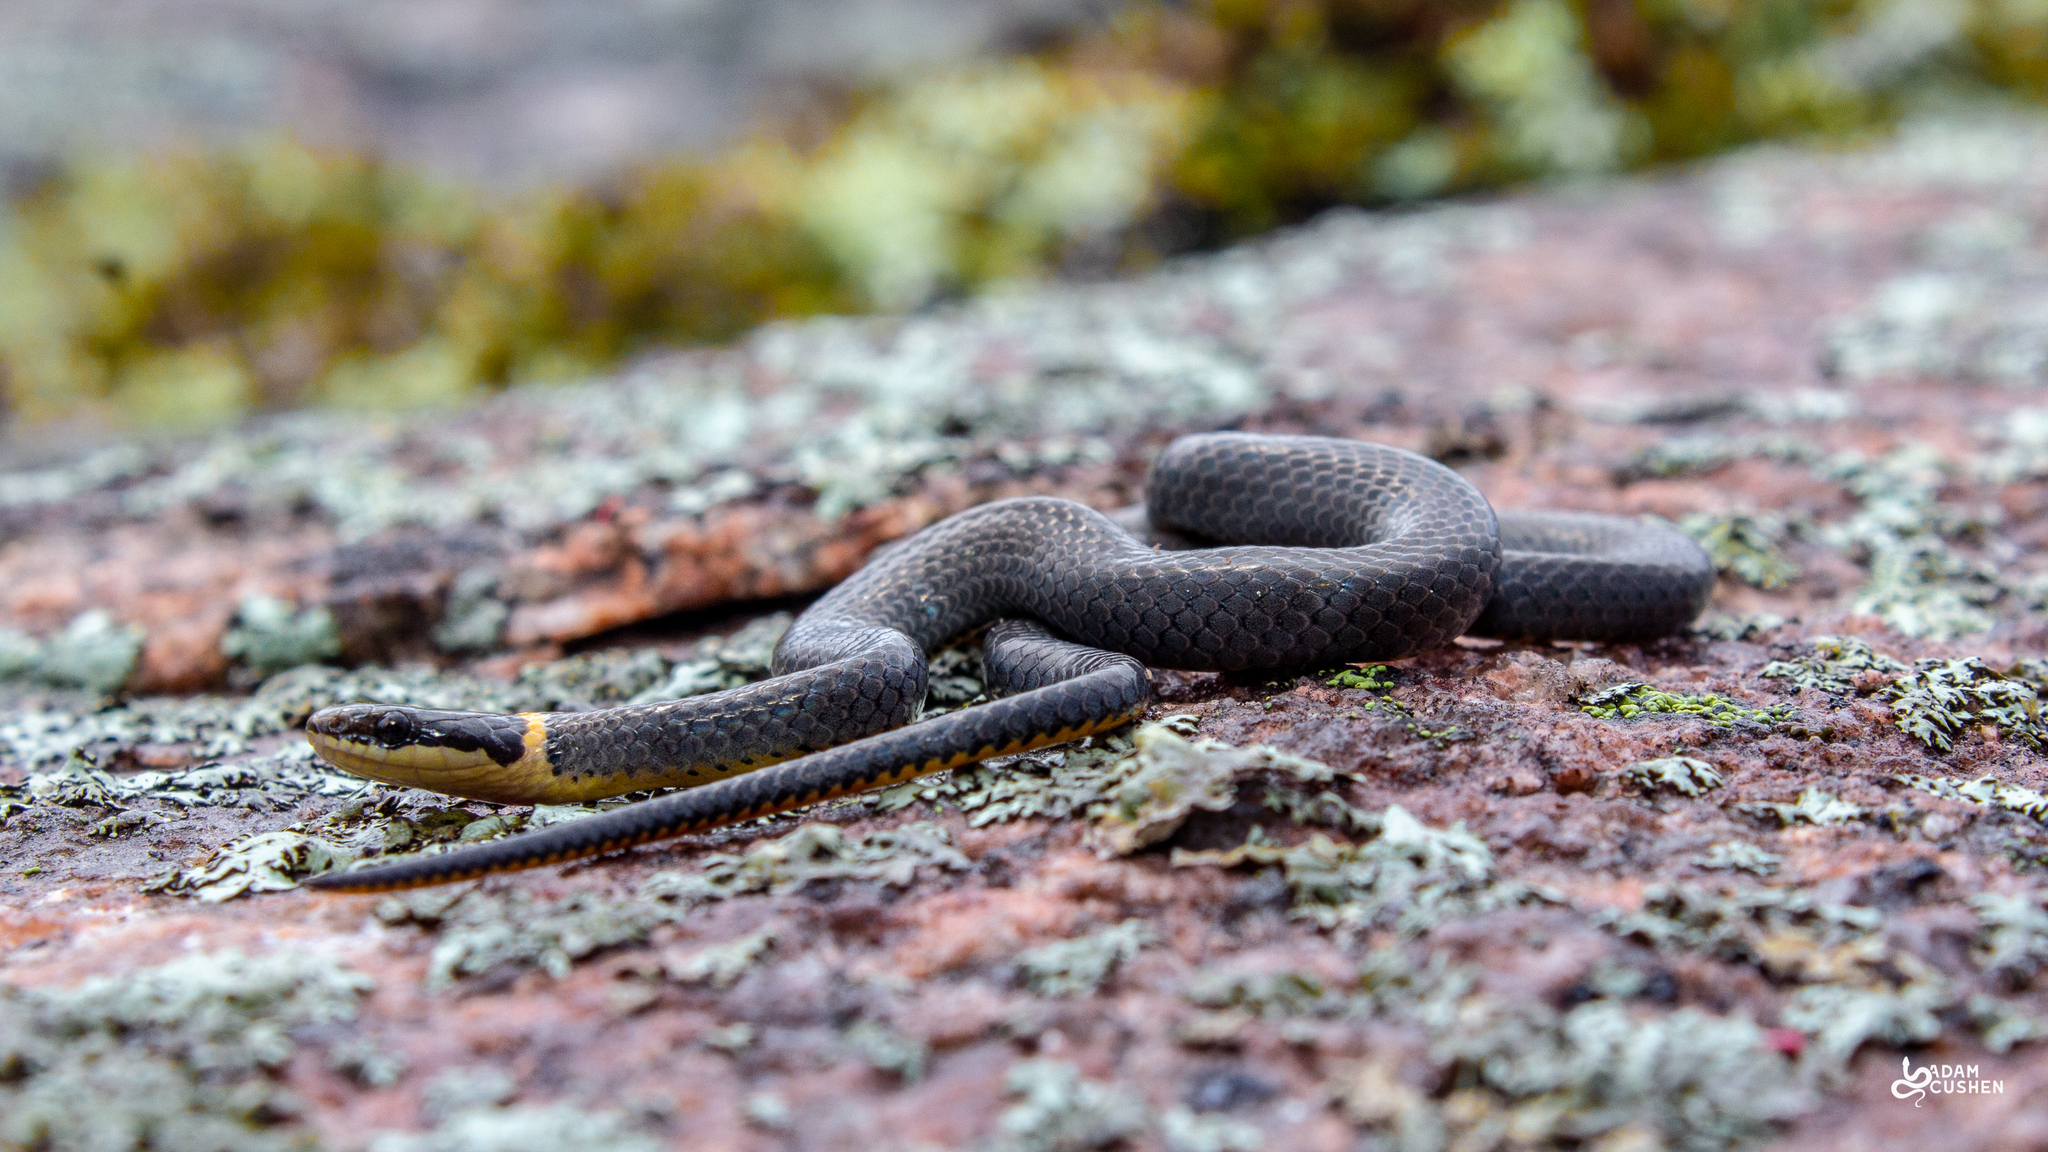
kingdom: Animalia
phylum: Chordata
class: Squamata
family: Colubridae
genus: Diadophis
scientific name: Diadophis punctatus
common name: Ringneck snake
